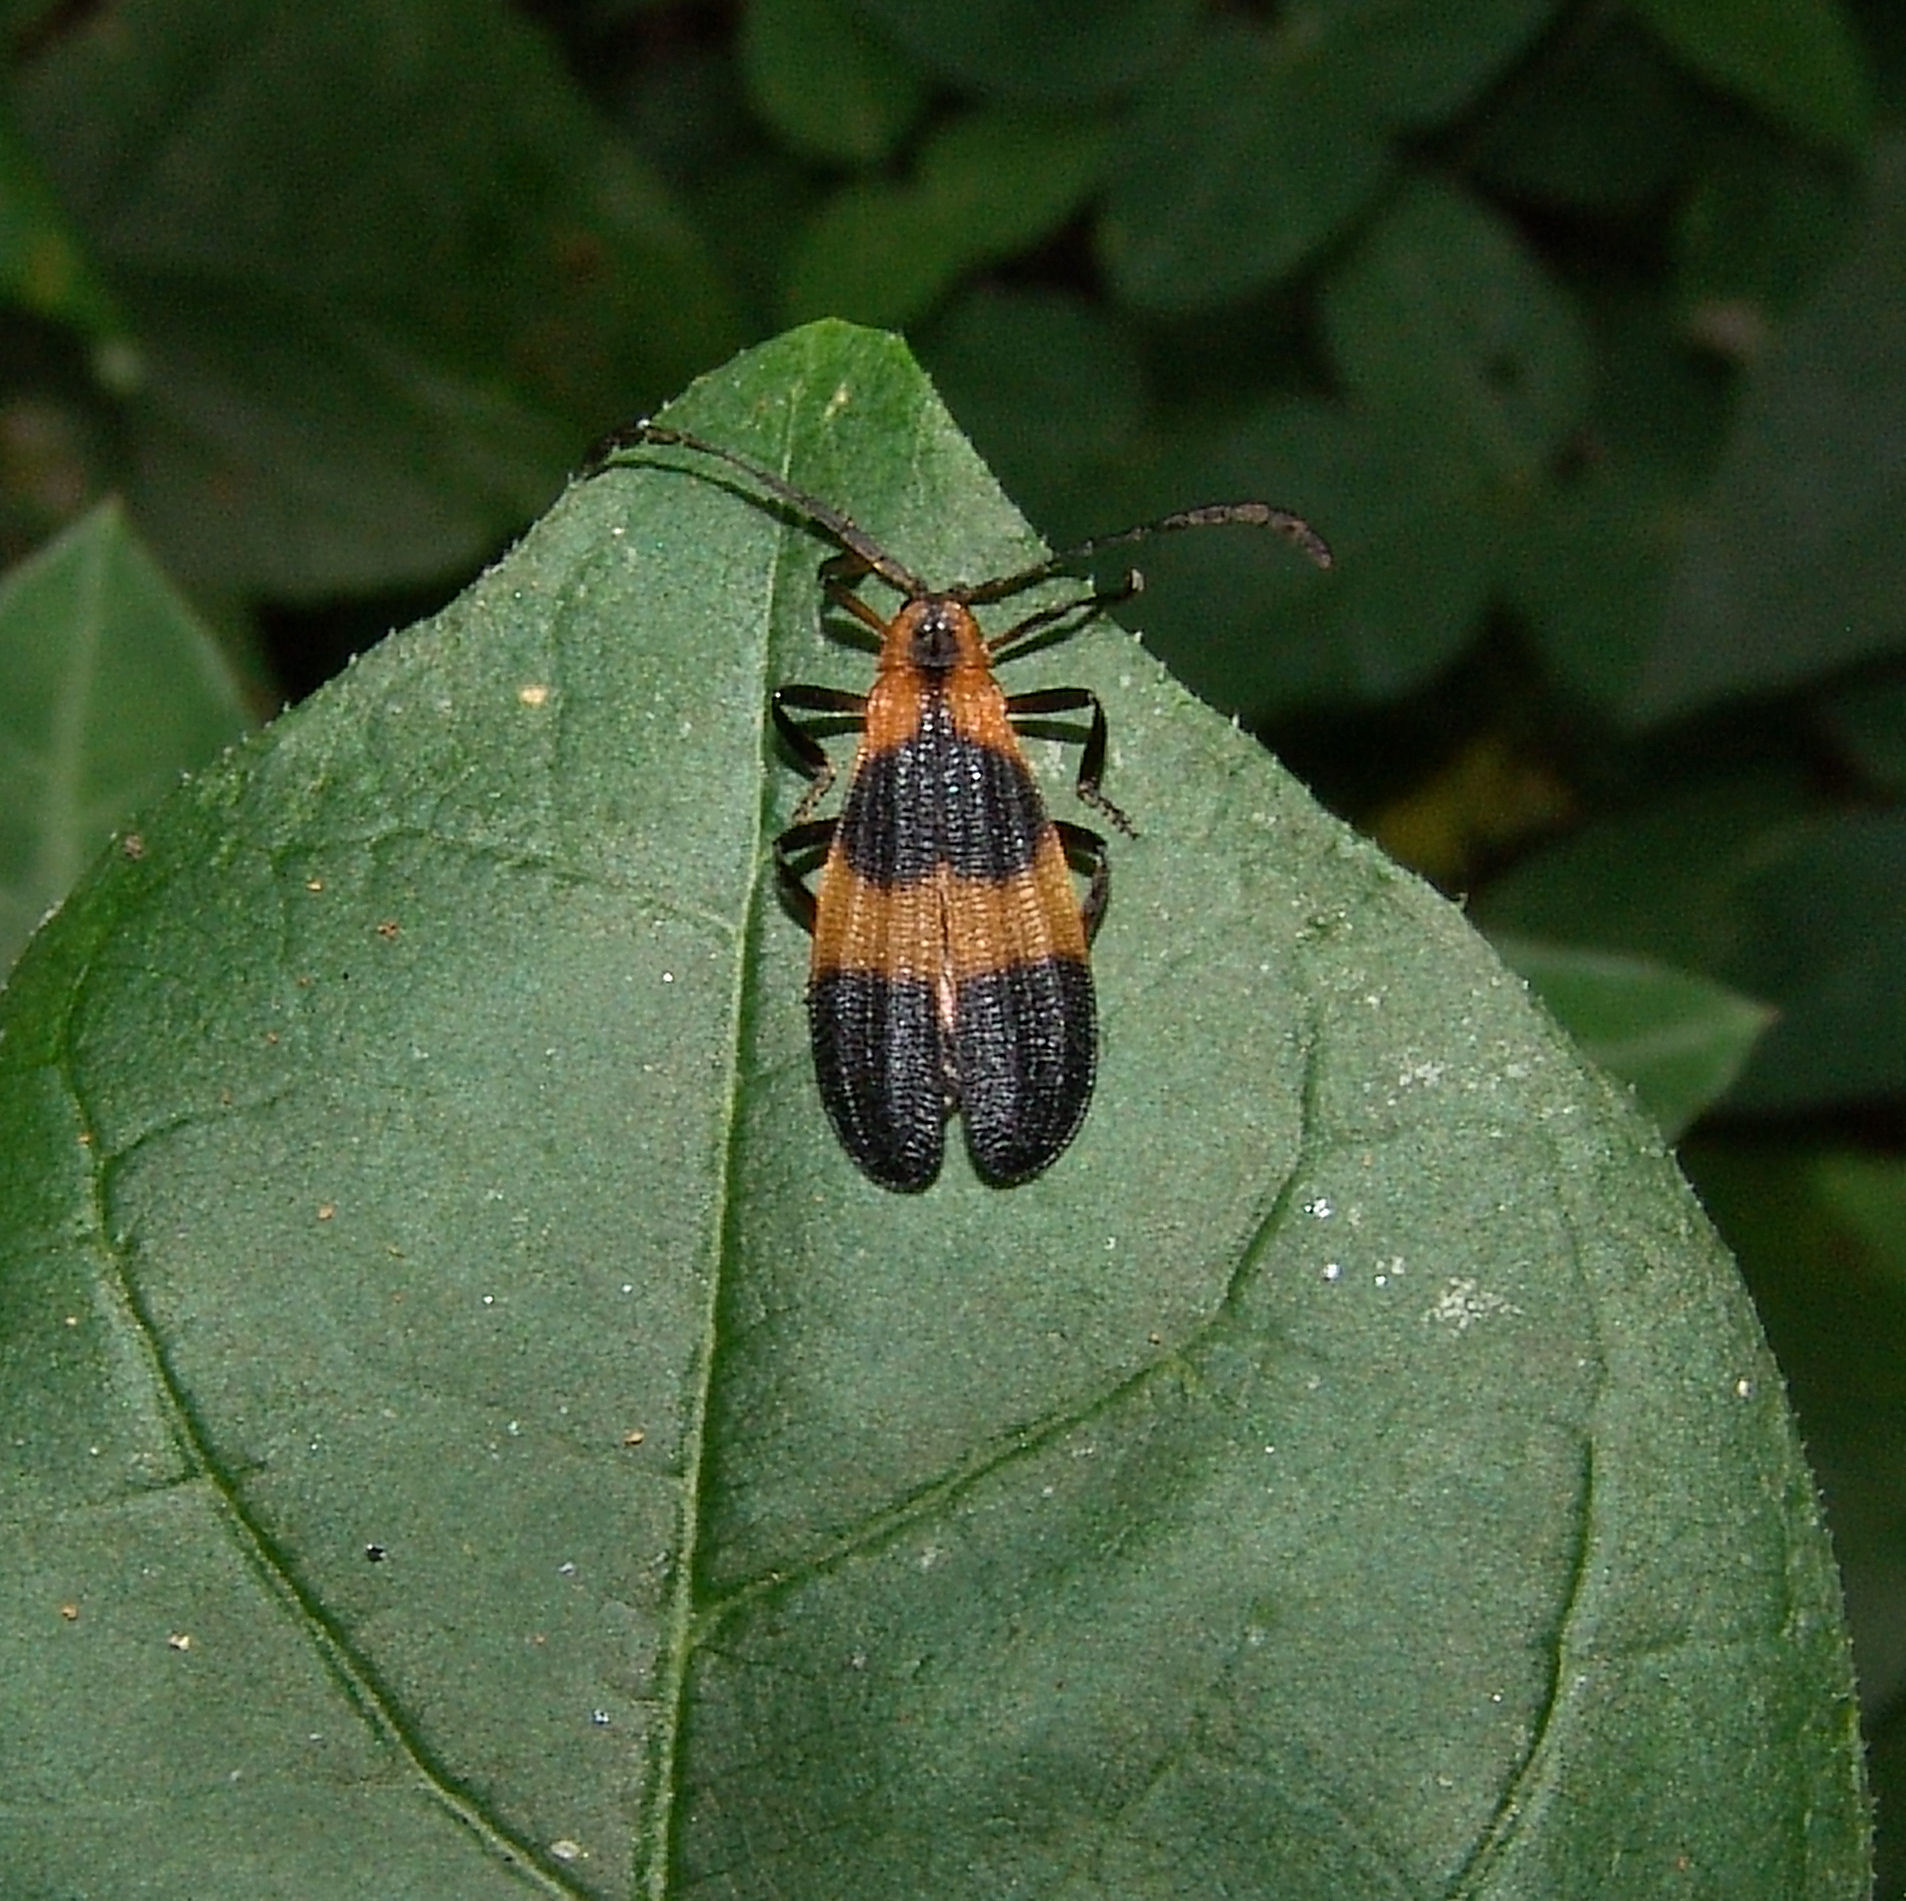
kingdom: Animalia
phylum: Arthropoda
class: Insecta
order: Coleoptera
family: Lycidae
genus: Calopteron
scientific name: Calopteron reticulatum
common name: Banded net-winged beetle
